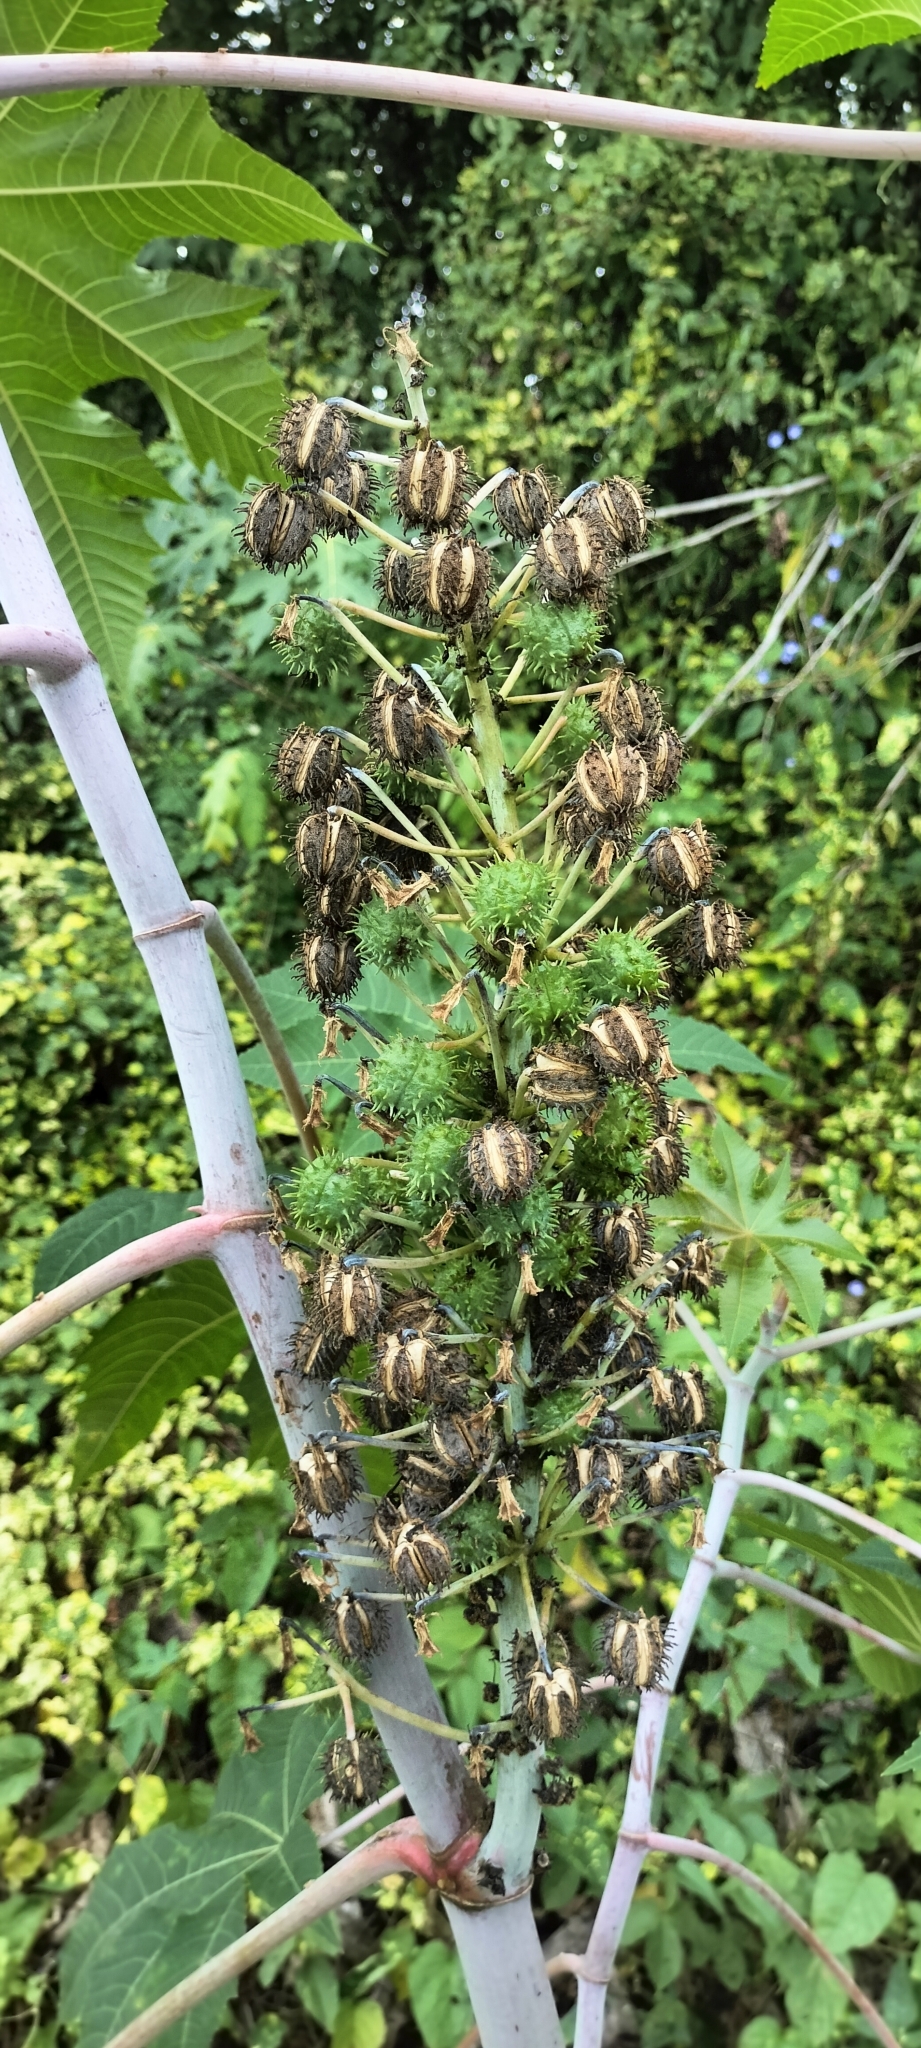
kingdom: Plantae
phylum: Tracheophyta
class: Magnoliopsida
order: Malpighiales
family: Euphorbiaceae
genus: Ricinus
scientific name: Ricinus communis
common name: Castor-oil-plant
